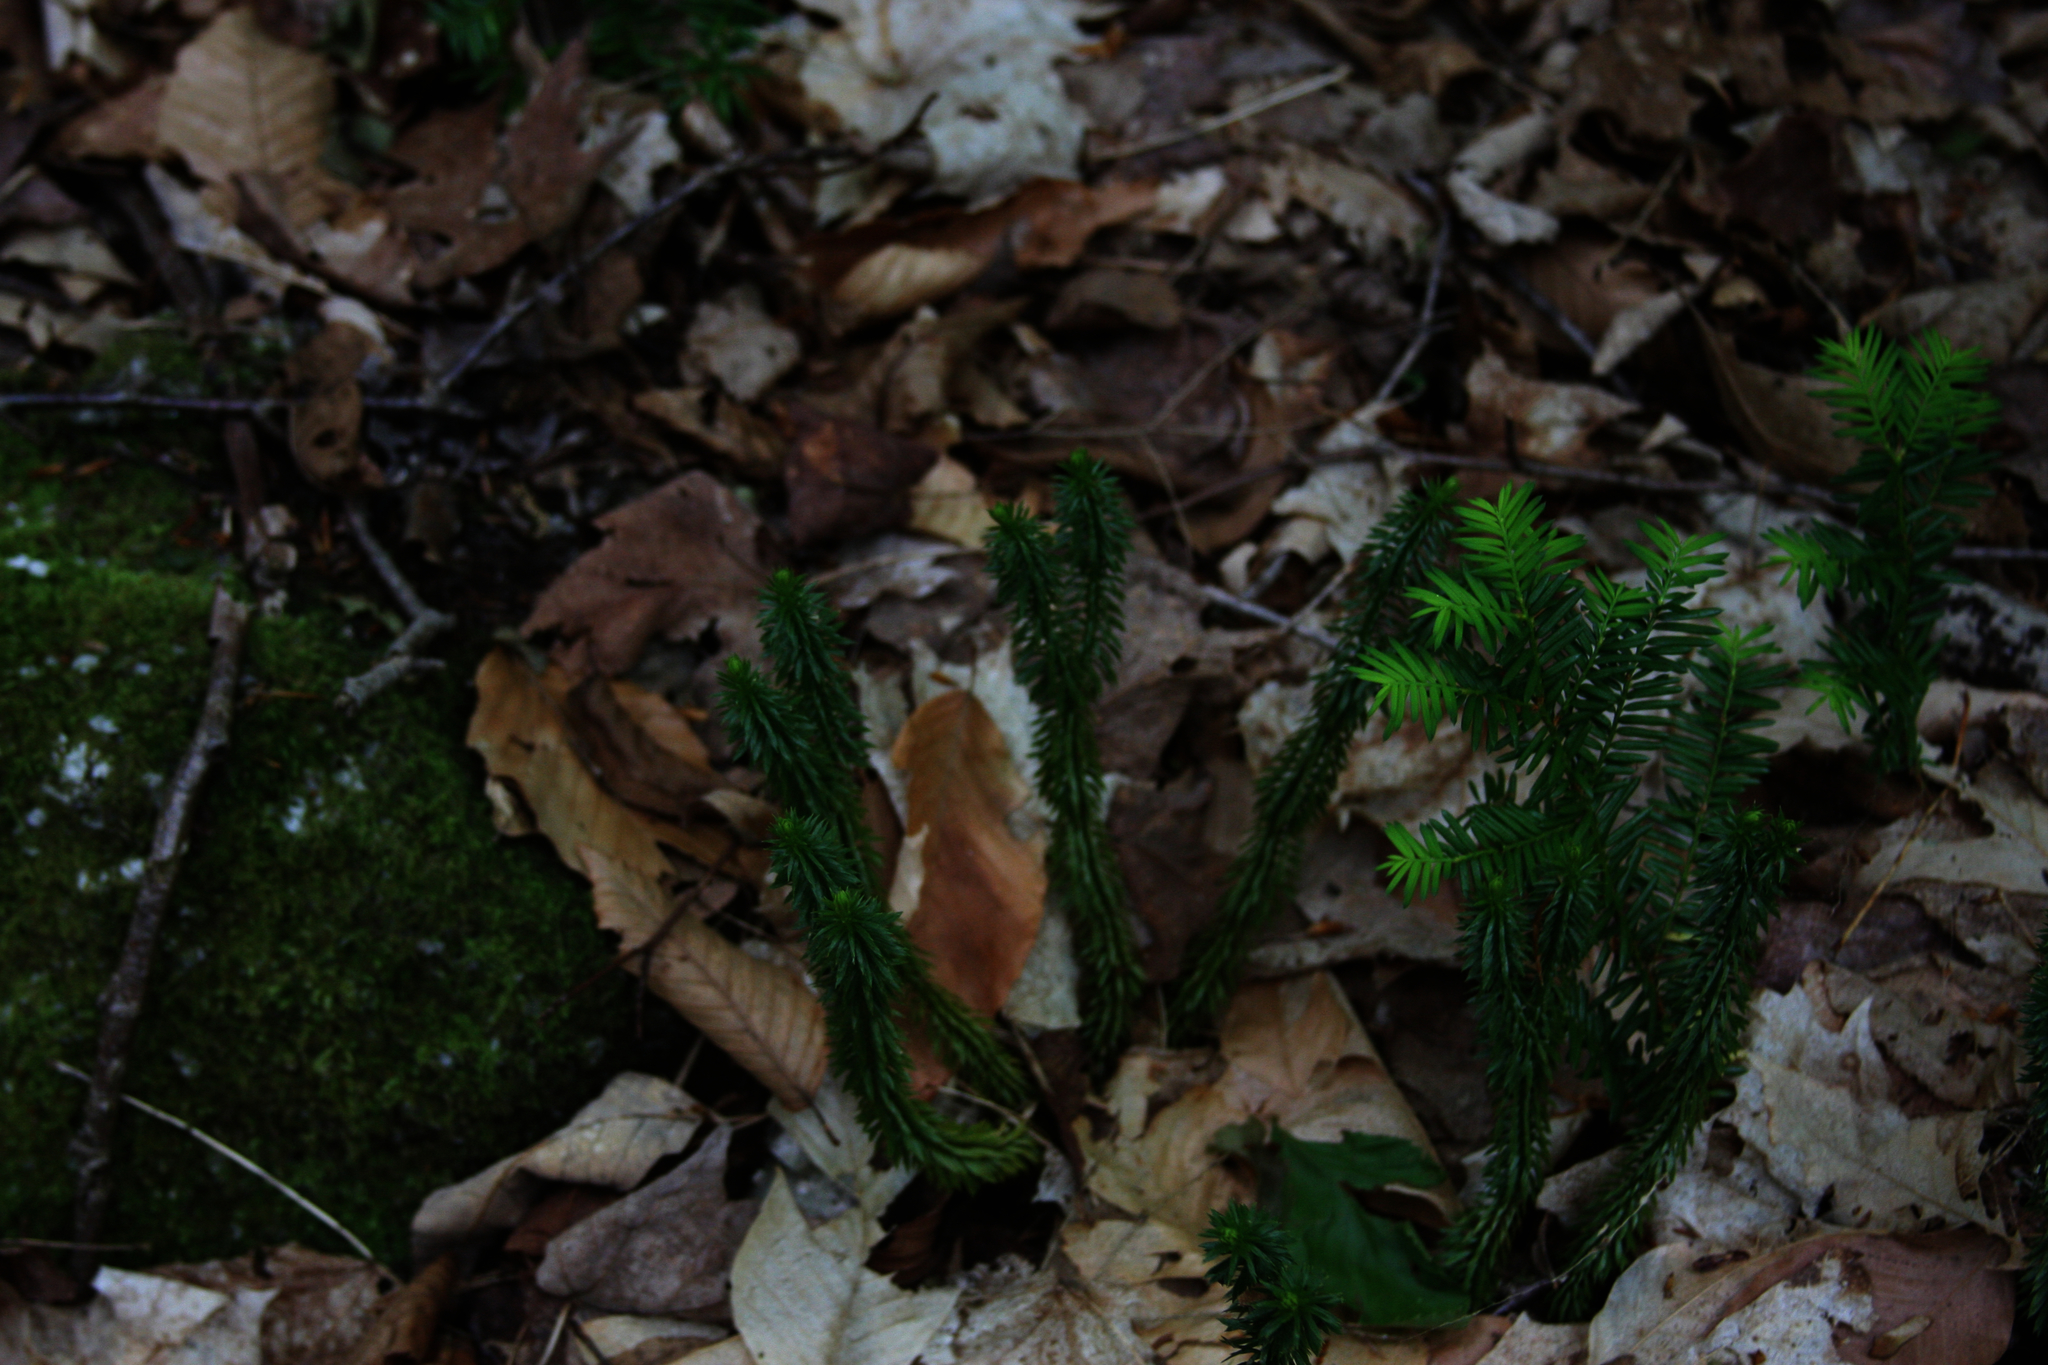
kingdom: Plantae
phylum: Tracheophyta
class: Lycopodiopsida
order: Lycopodiales
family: Lycopodiaceae
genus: Huperzia
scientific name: Huperzia lucidula
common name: Shining clubmoss
